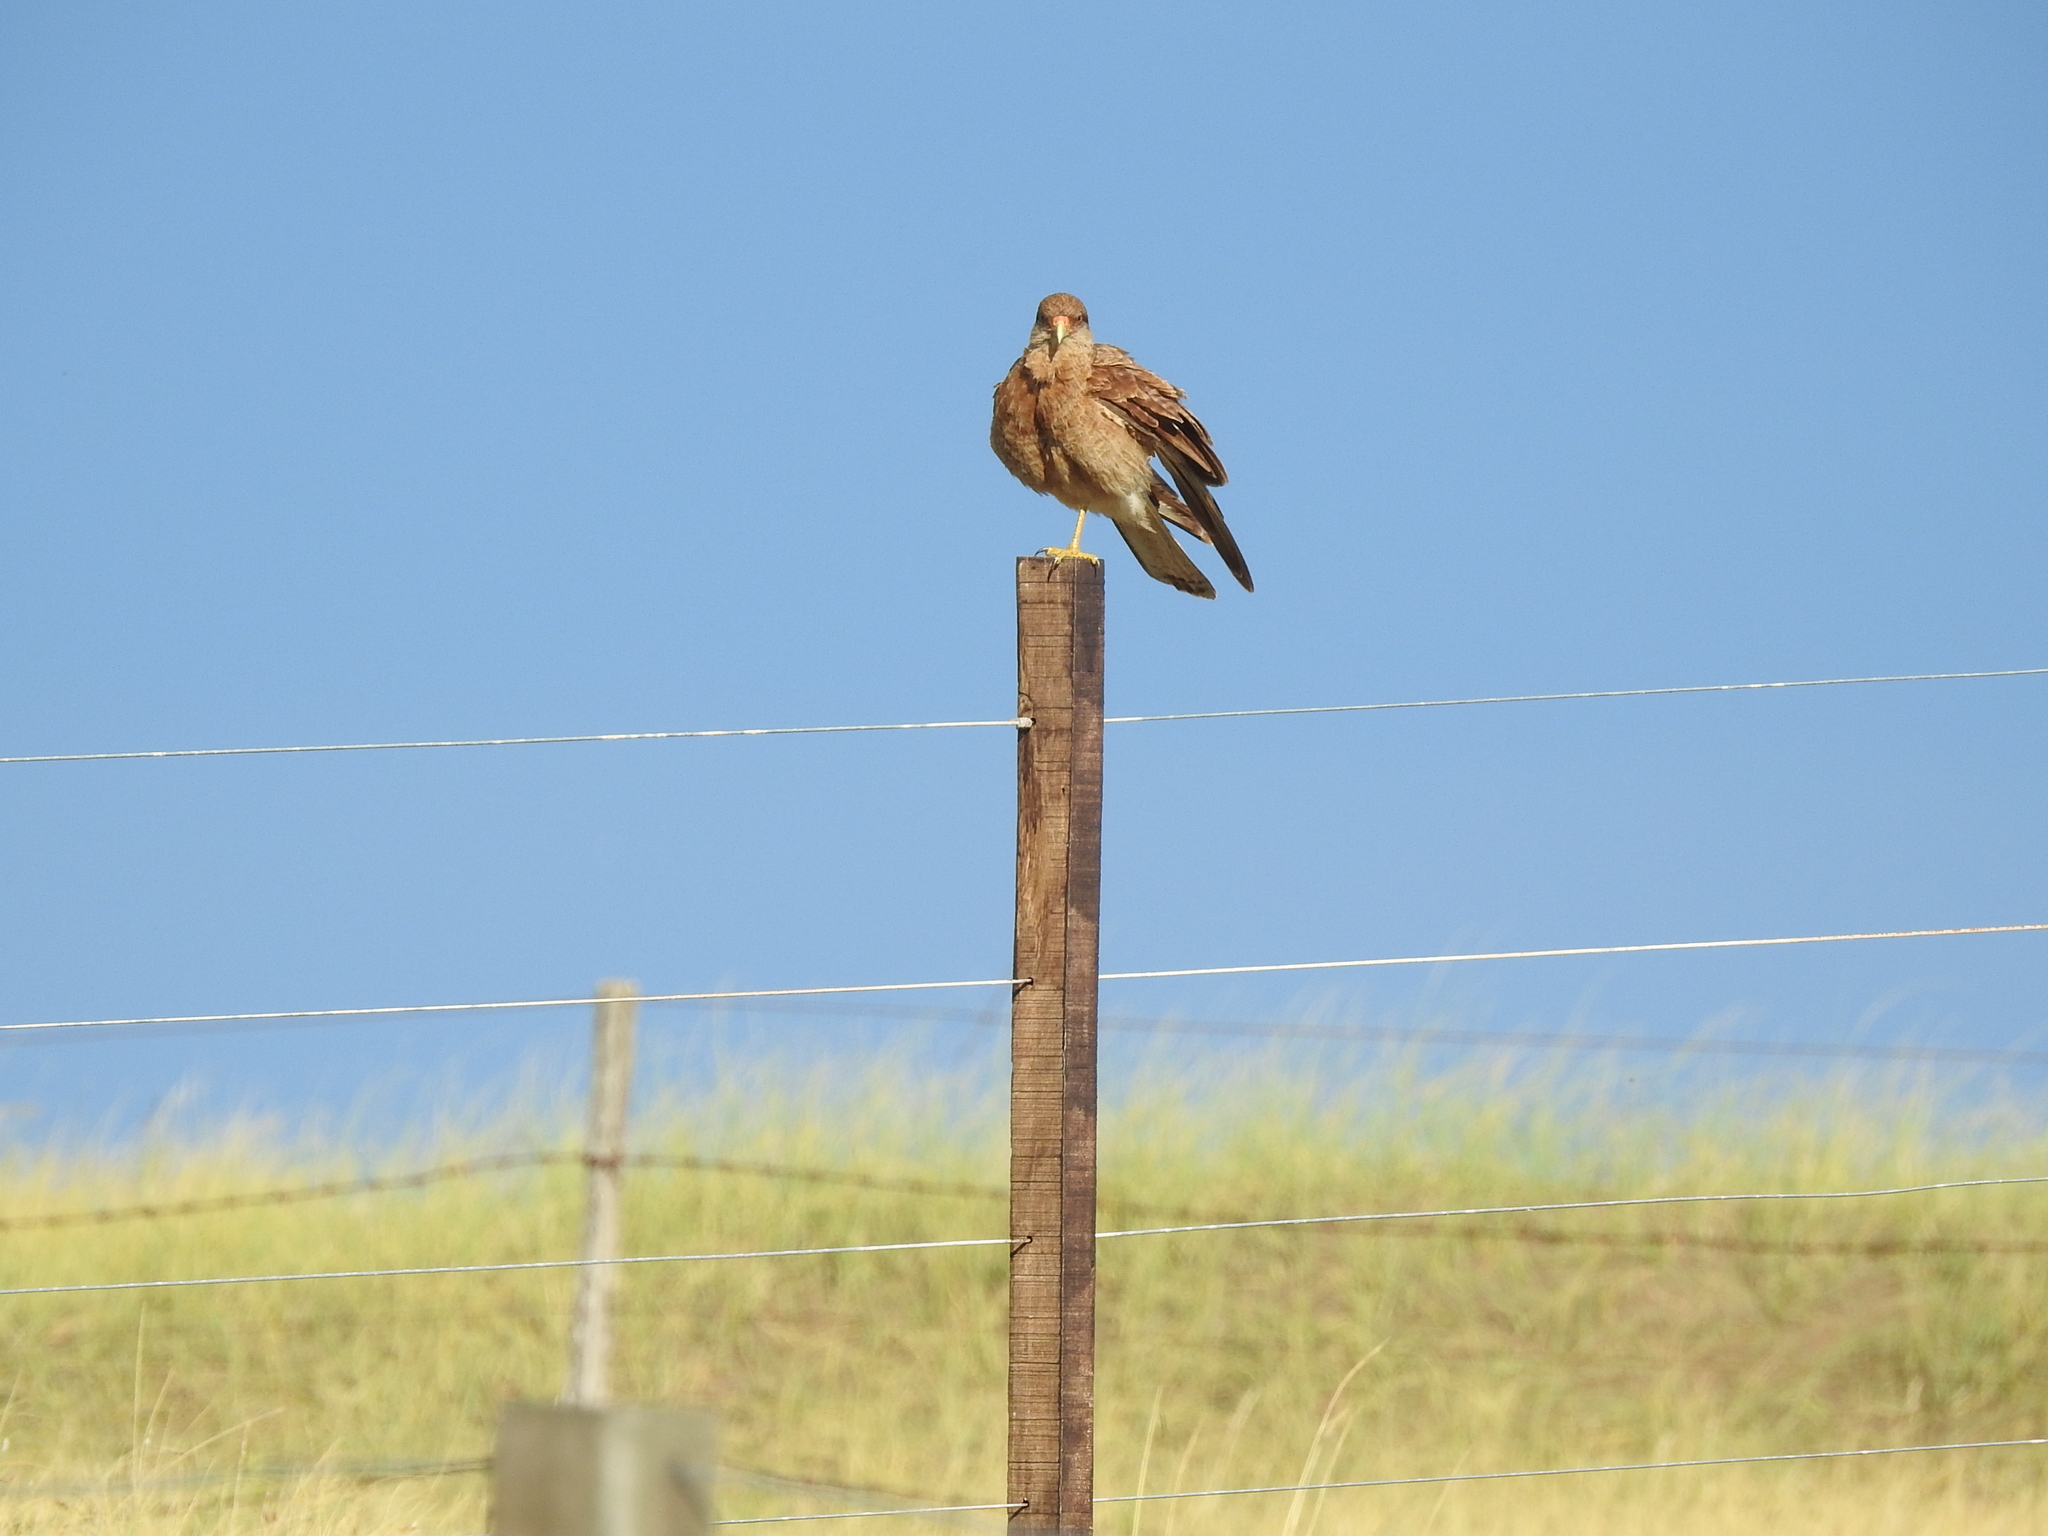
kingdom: Animalia
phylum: Chordata
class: Aves
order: Falconiformes
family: Falconidae
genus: Daptrius
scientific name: Daptrius
